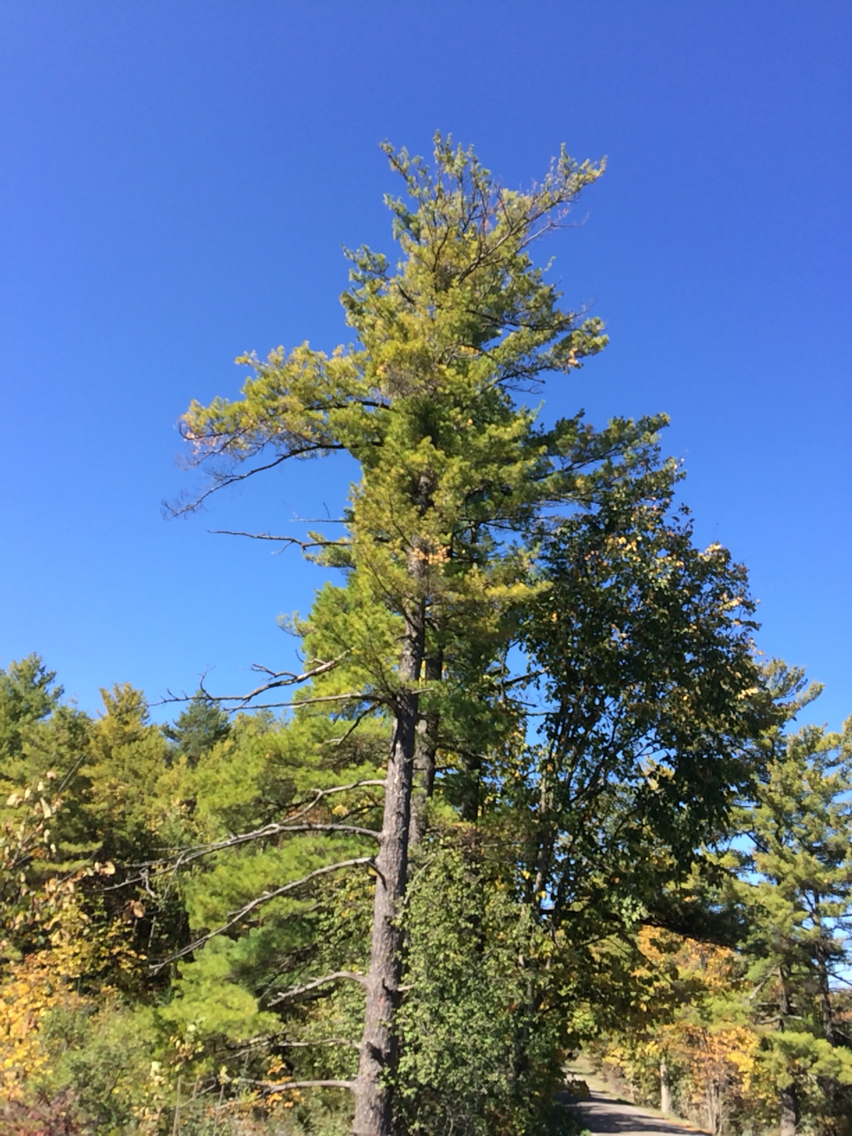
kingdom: Plantae
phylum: Tracheophyta
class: Pinopsida
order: Pinales
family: Pinaceae
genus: Pinus
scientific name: Pinus strobus
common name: Weymouth pine
